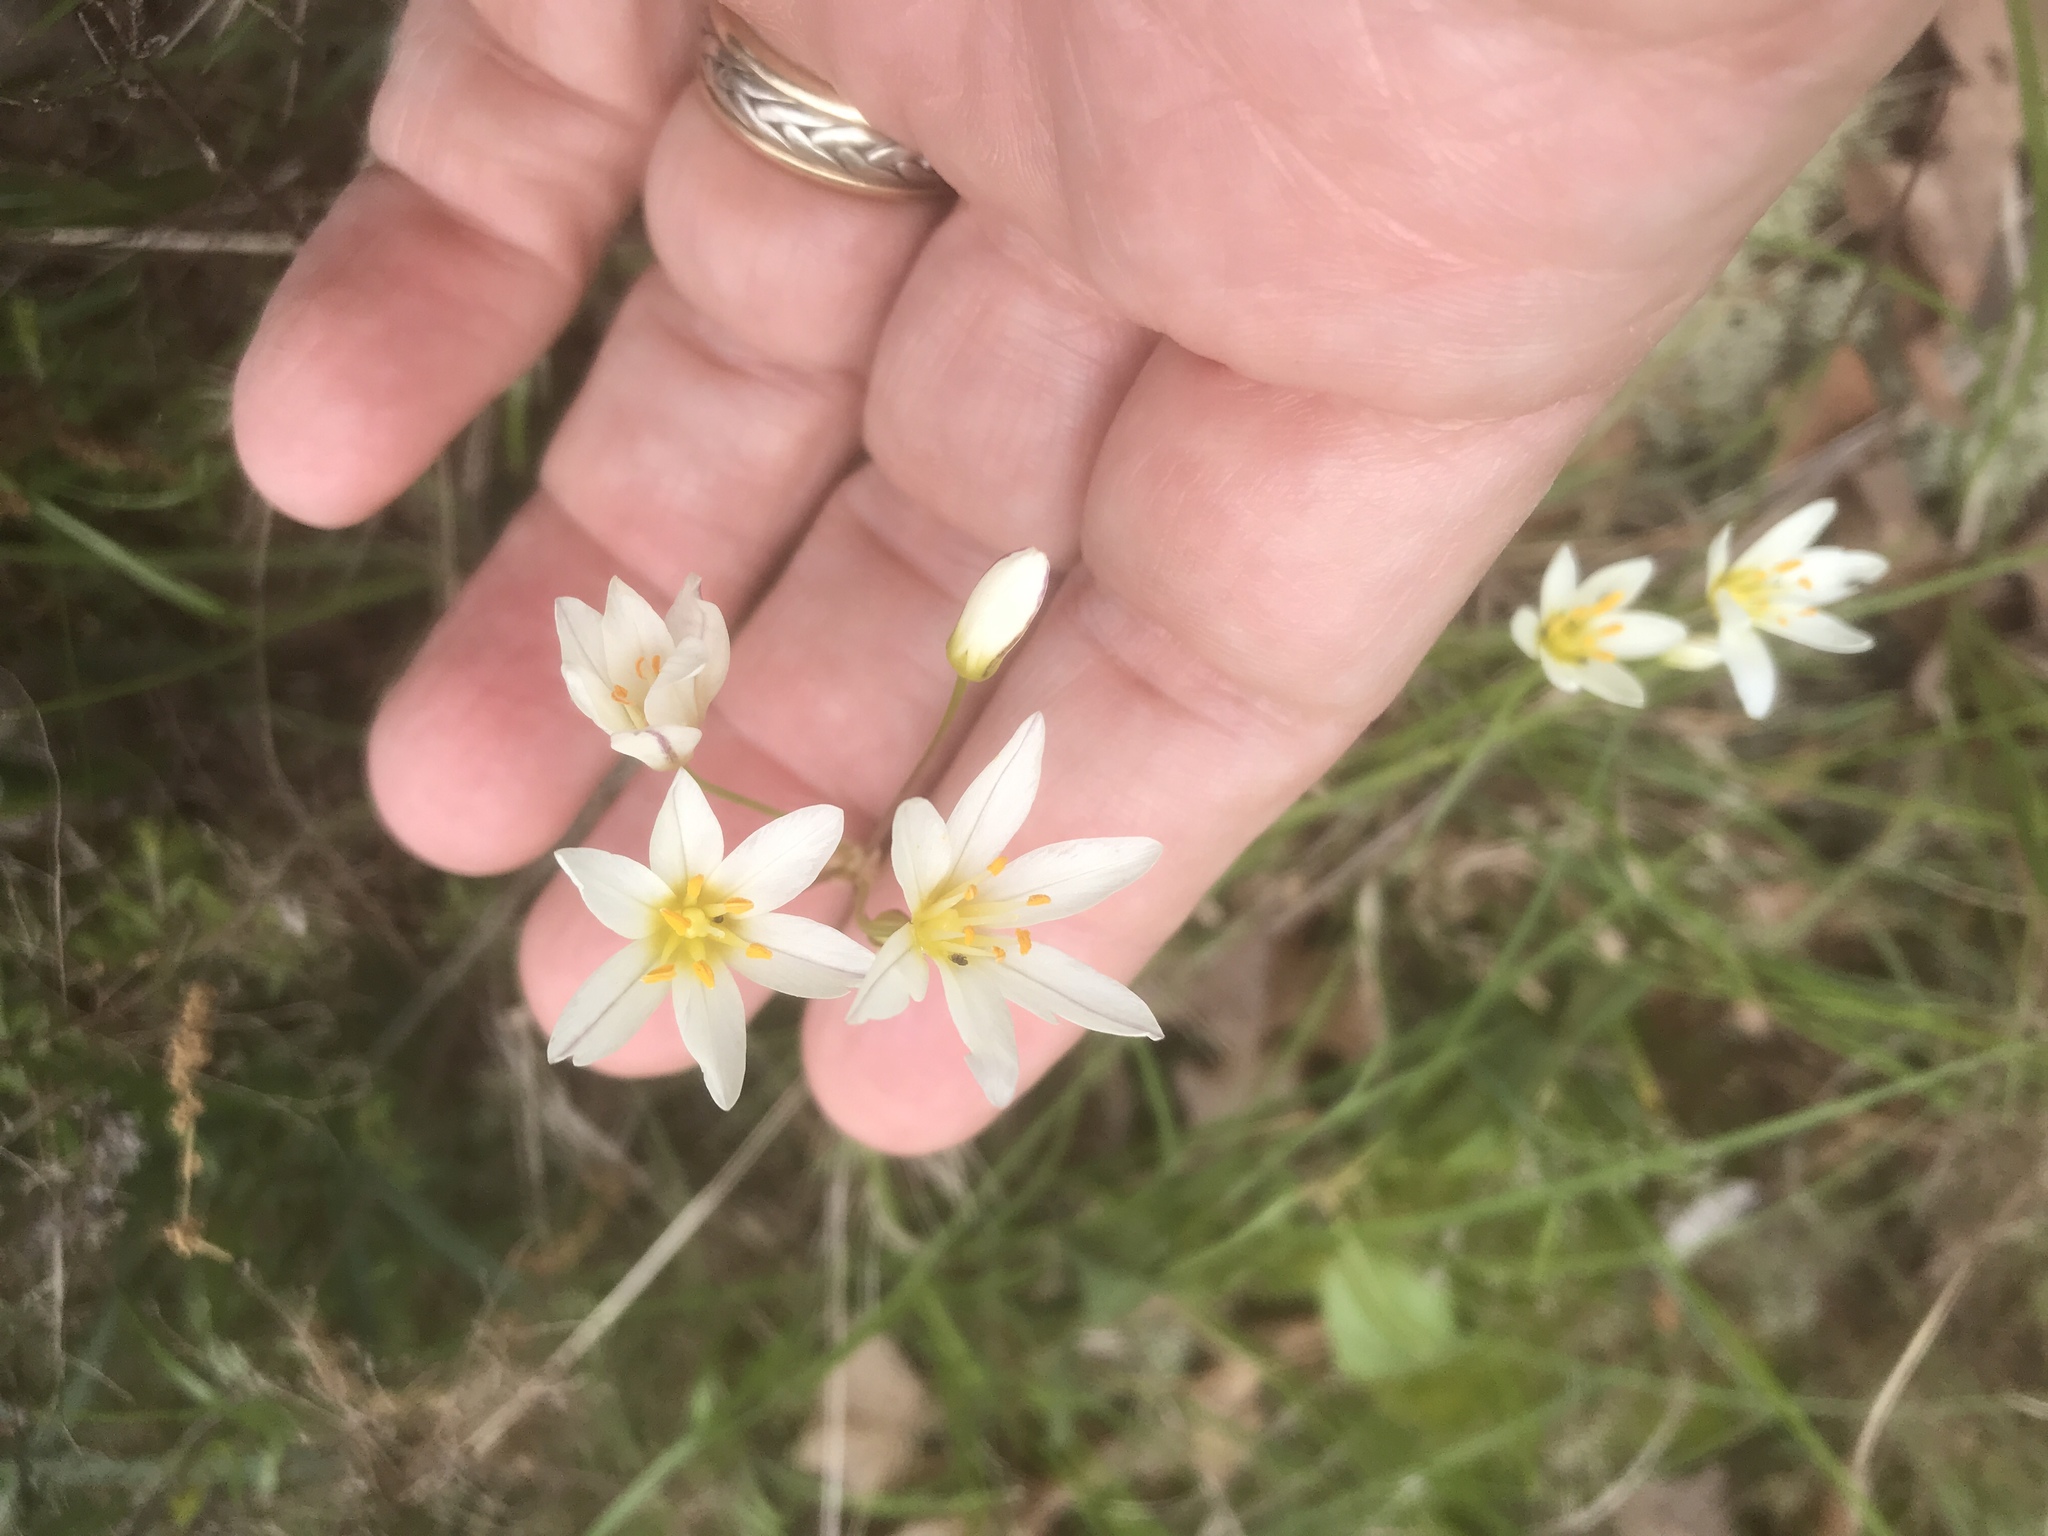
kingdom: Plantae
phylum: Tracheophyta
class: Liliopsida
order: Asparagales
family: Amaryllidaceae
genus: Nothoscordum
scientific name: Nothoscordum bivalve
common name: Crow-poison
